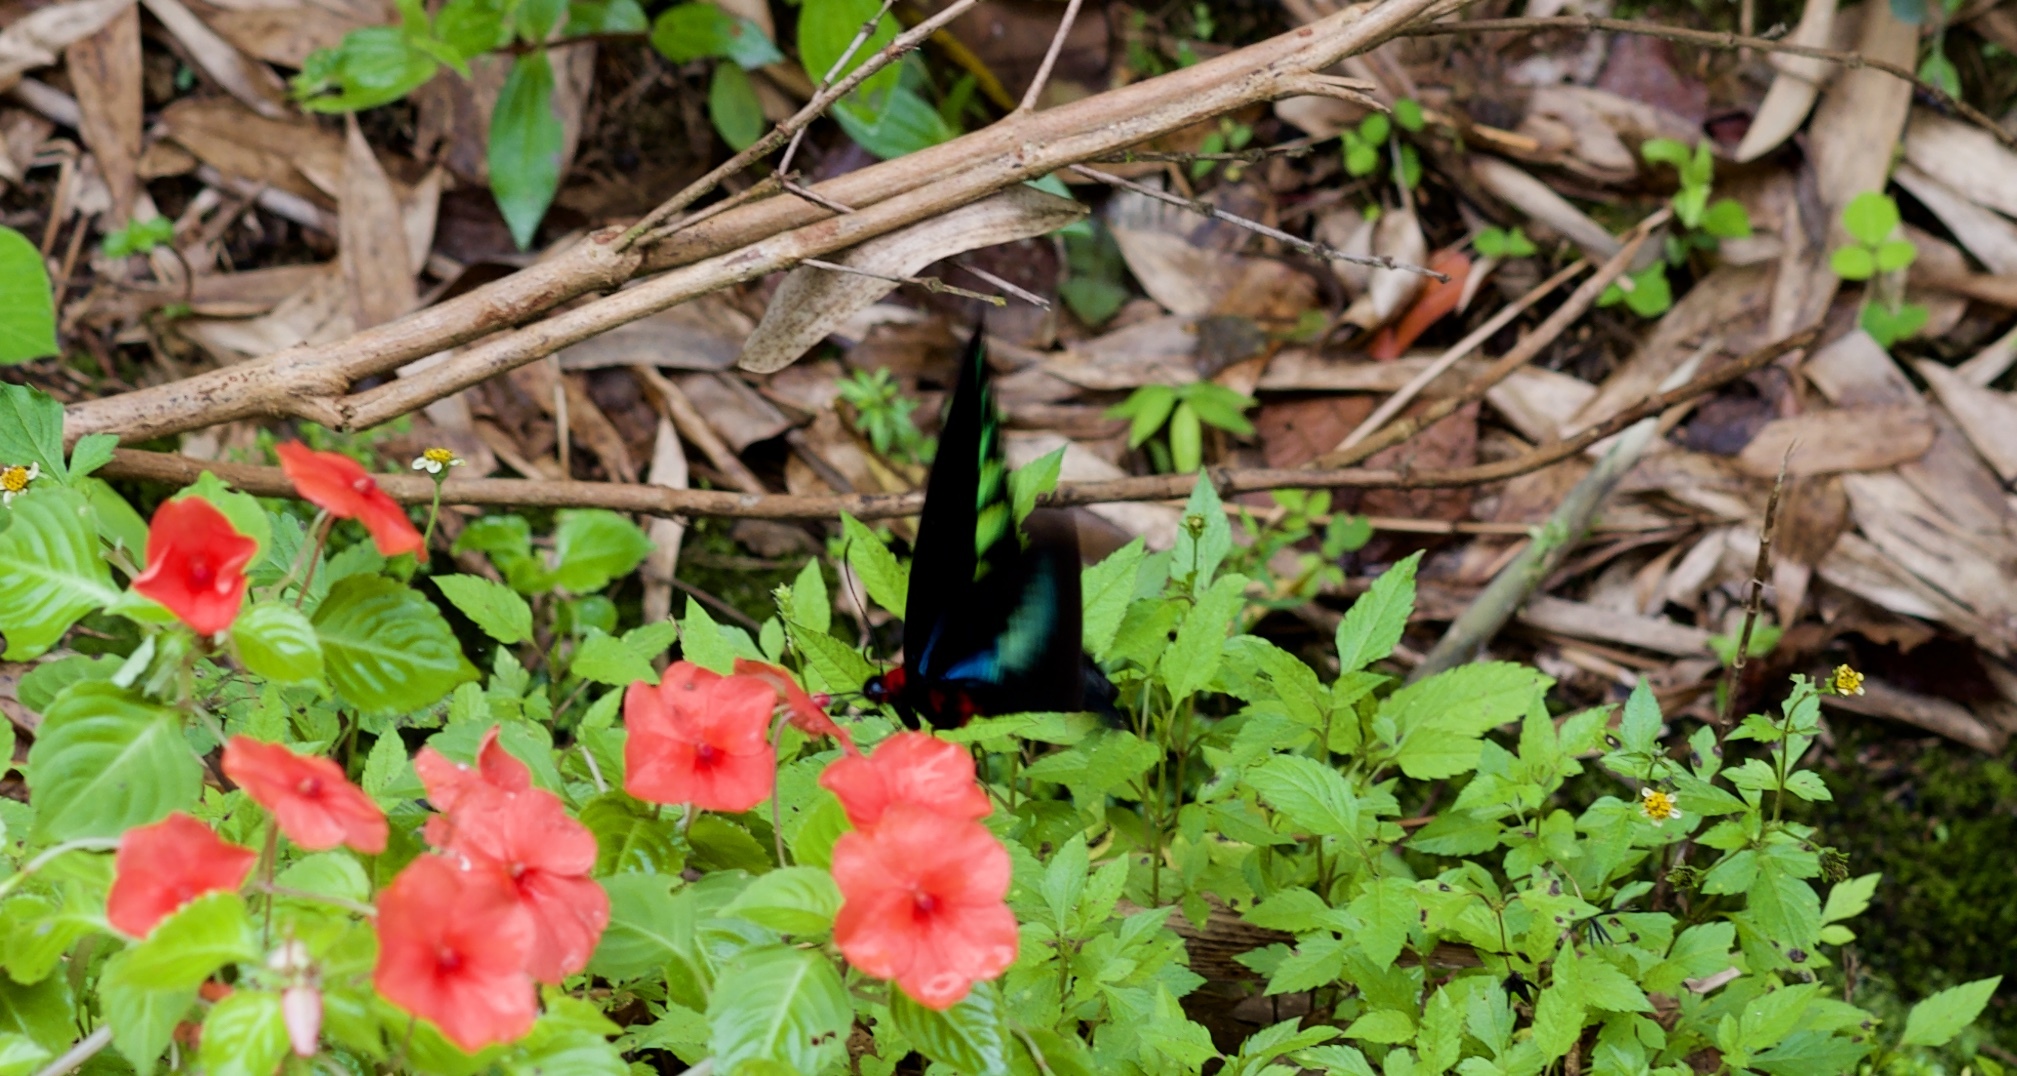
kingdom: Animalia
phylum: Arthropoda
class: Insecta
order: Lepidoptera
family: Papilionidae
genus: Trogonoptera
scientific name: Trogonoptera brookiana
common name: Raja brooke's birdwing
